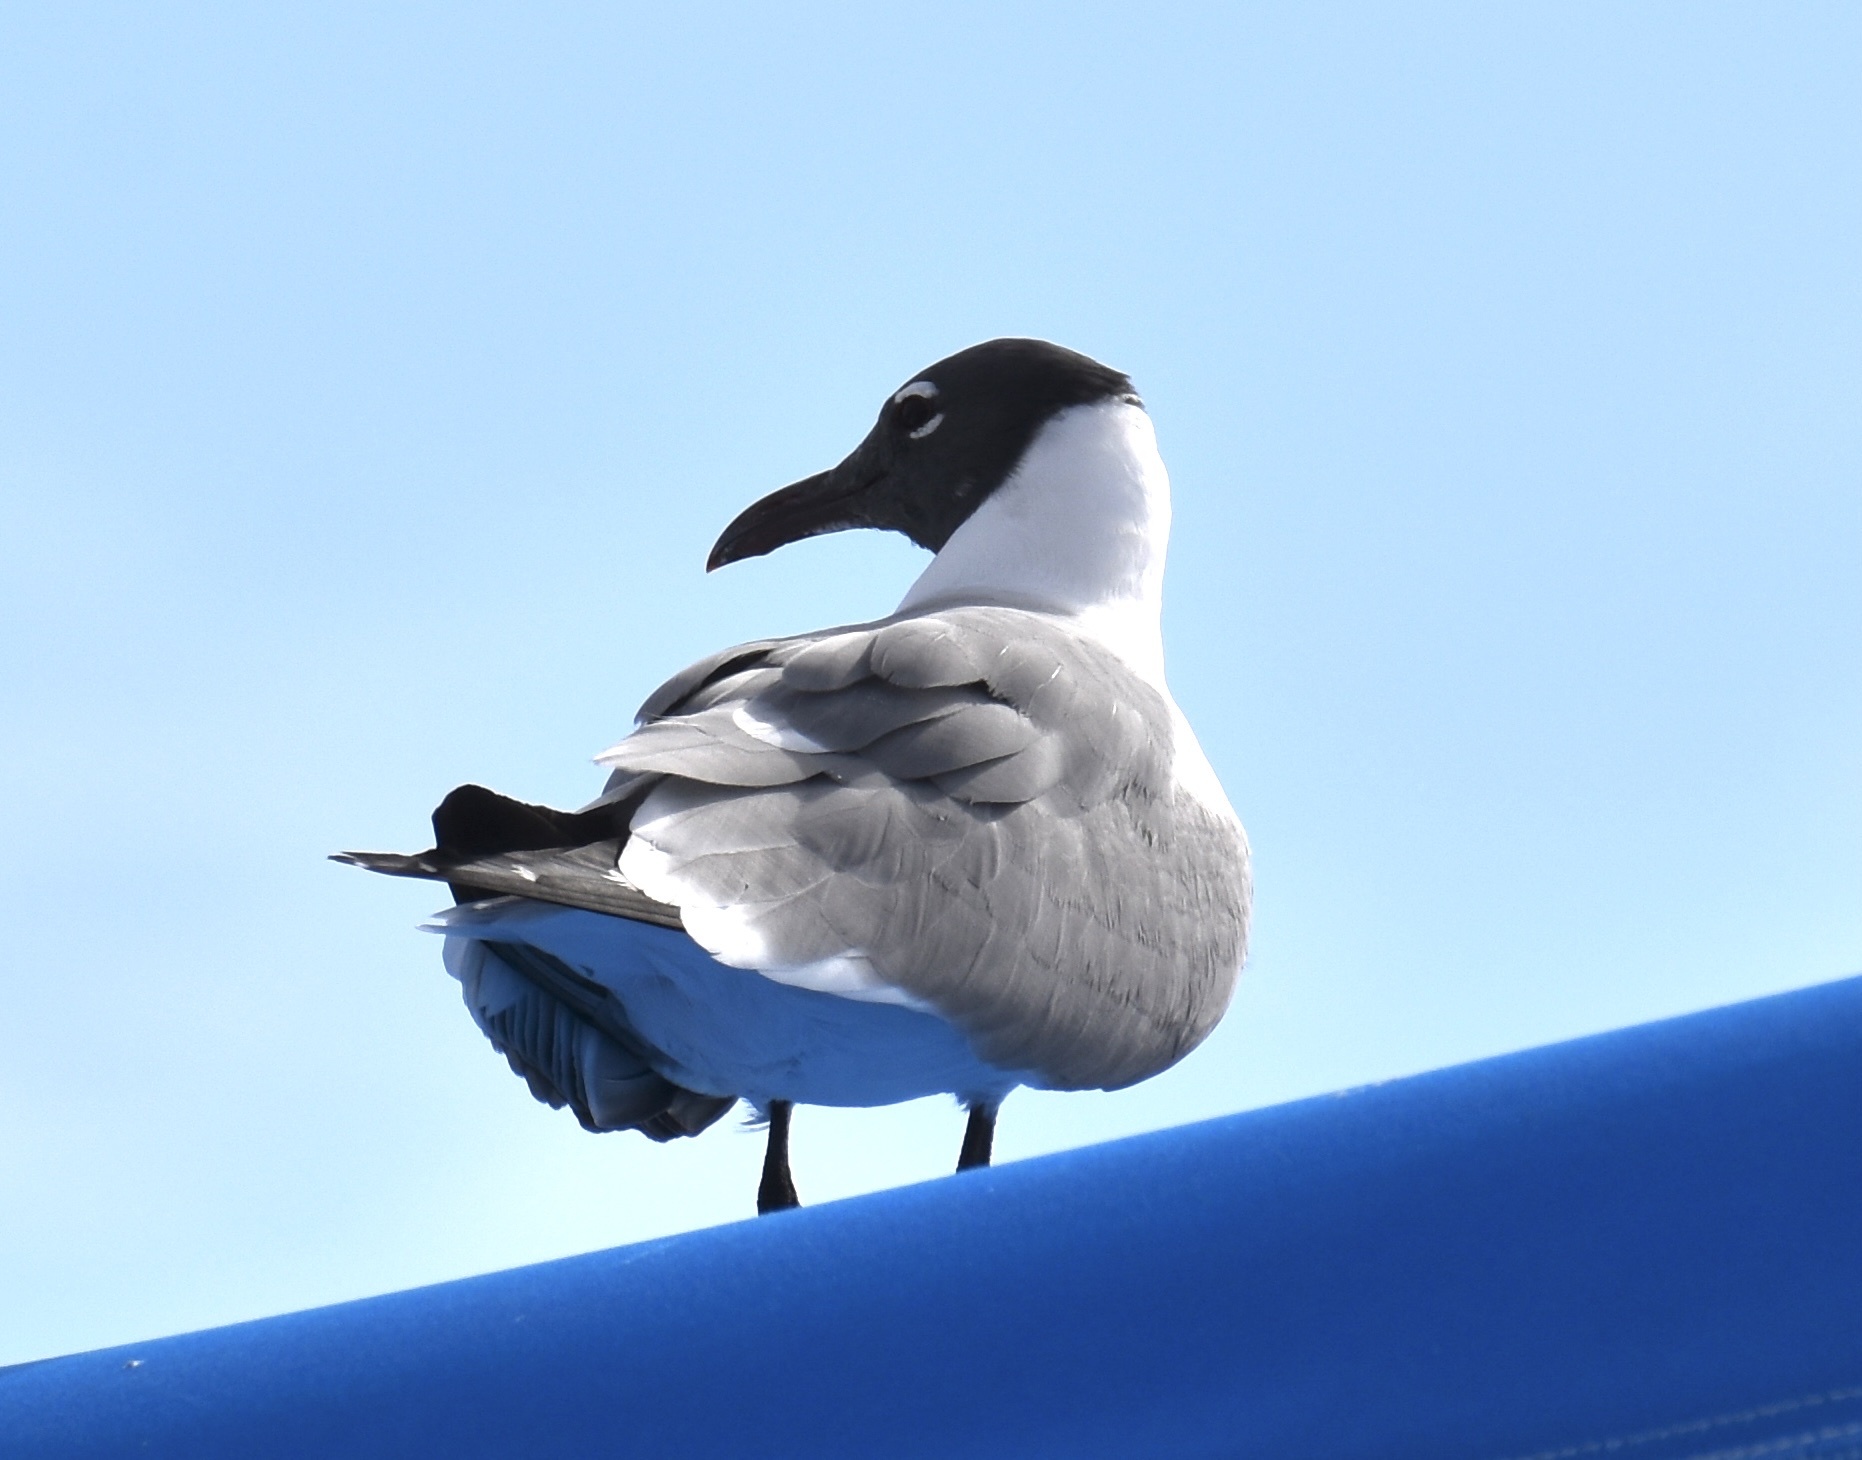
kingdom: Animalia
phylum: Chordata
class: Aves
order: Charadriiformes
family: Laridae
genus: Leucophaeus
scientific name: Leucophaeus atricilla
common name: Laughing gull
